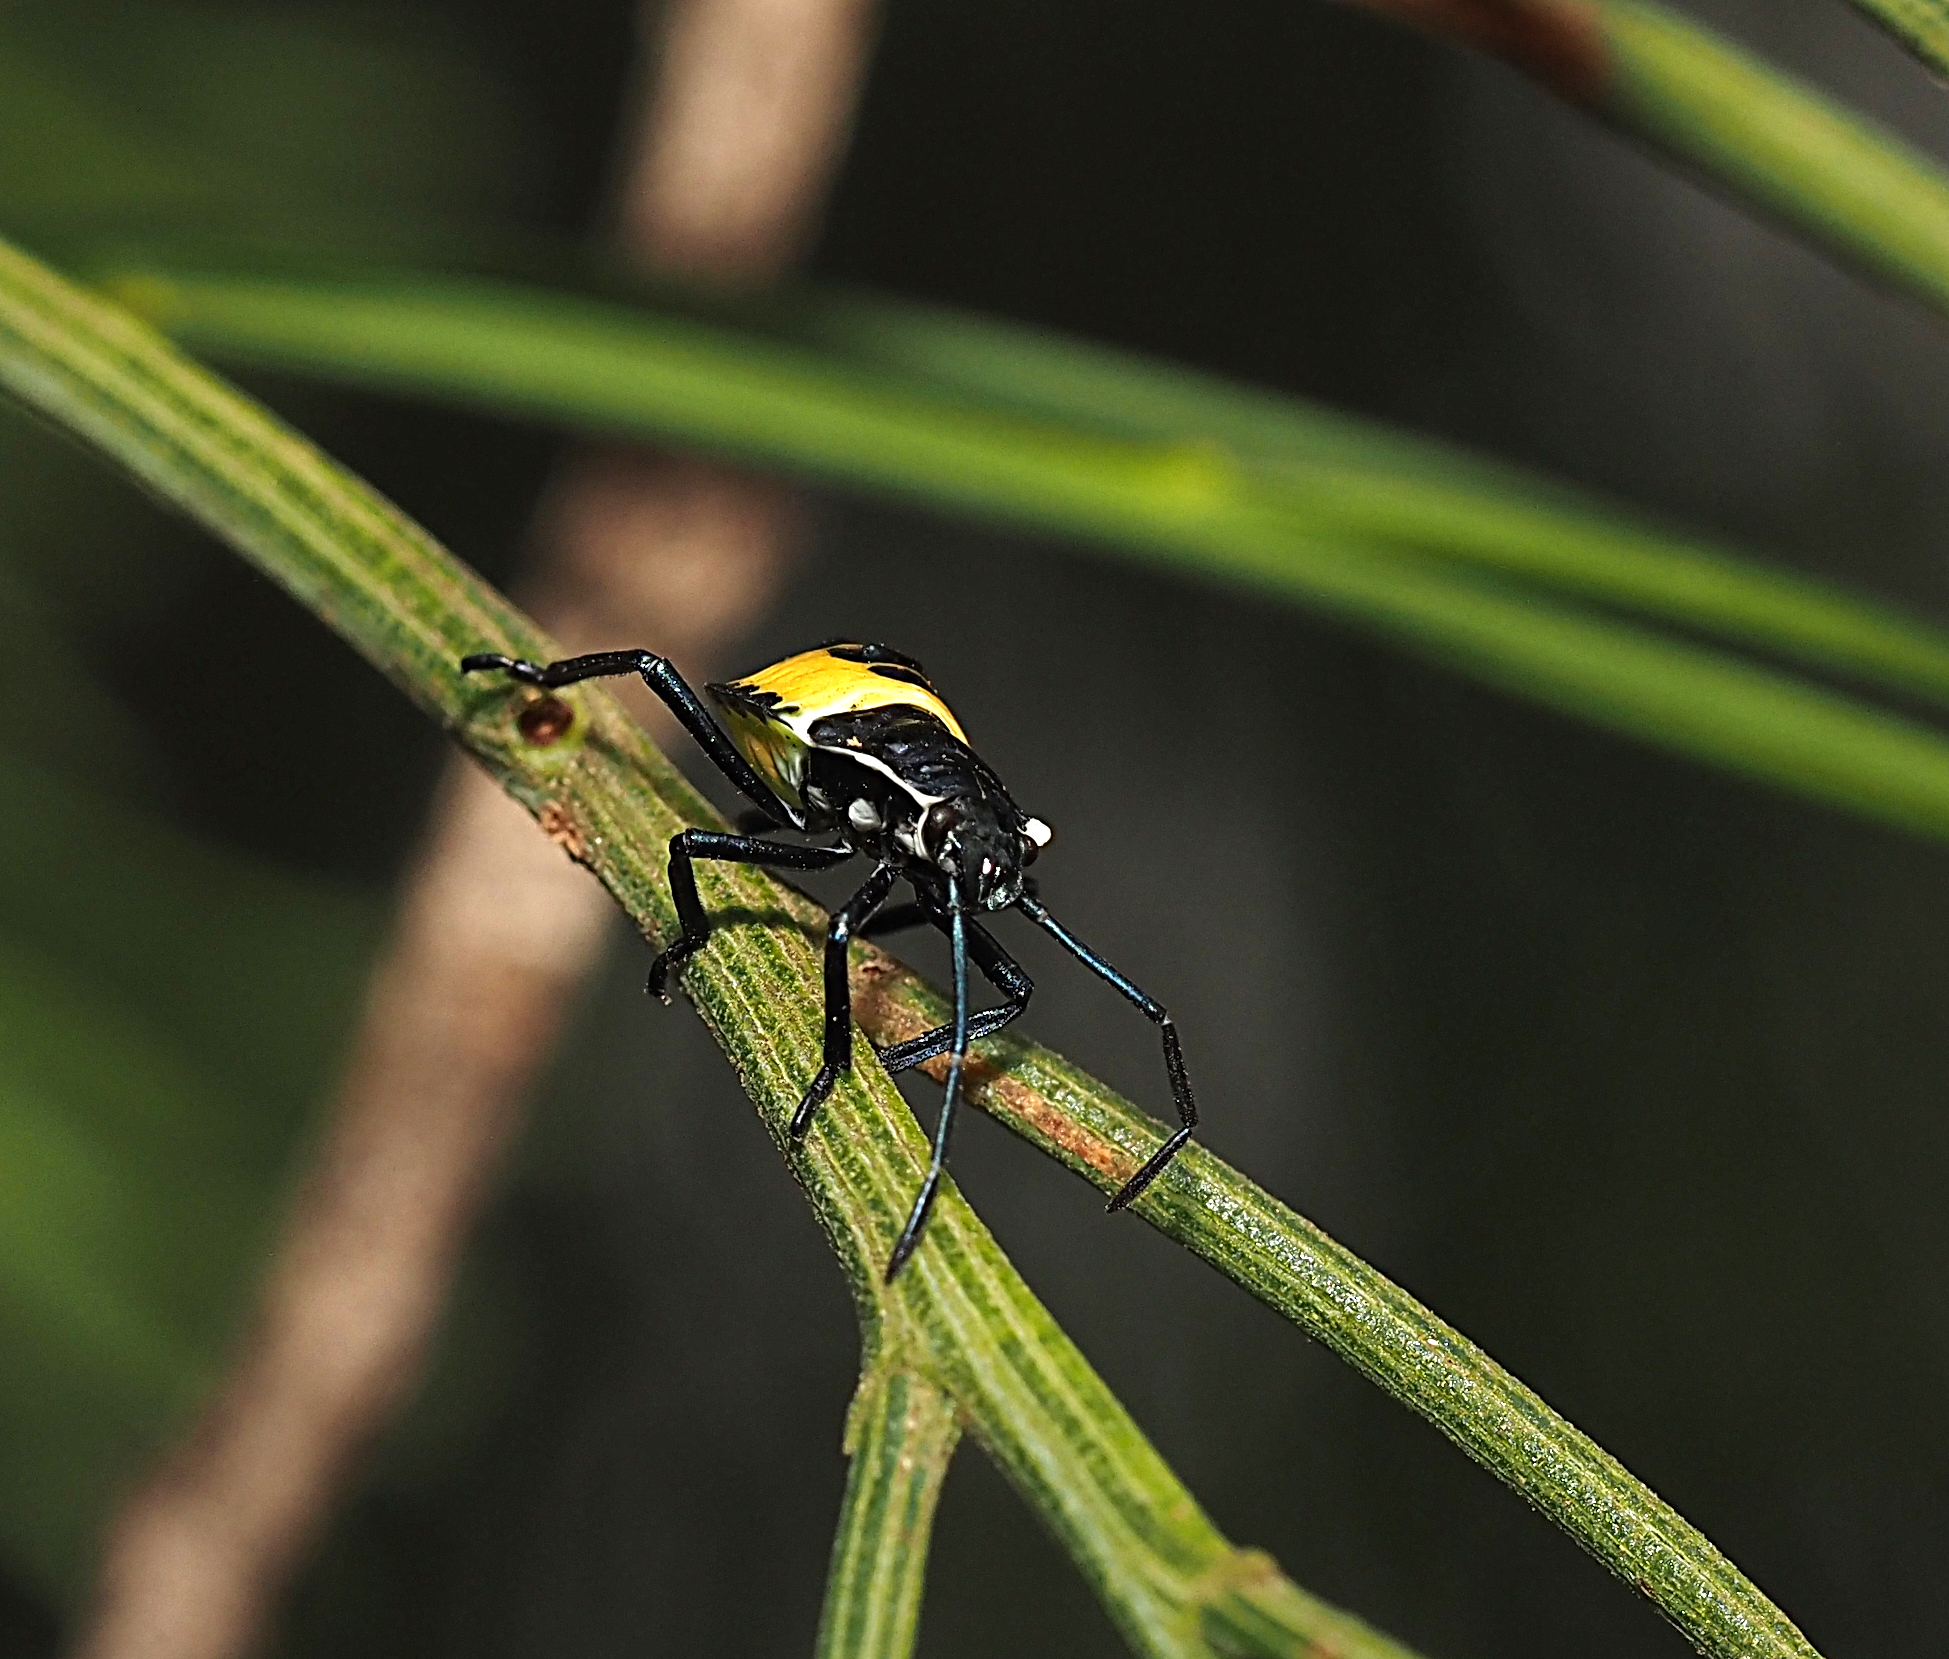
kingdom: Animalia
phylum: Arthropoda
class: Insecta
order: Hemiptera
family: Pentatomidae
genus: Commius
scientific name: Commius
